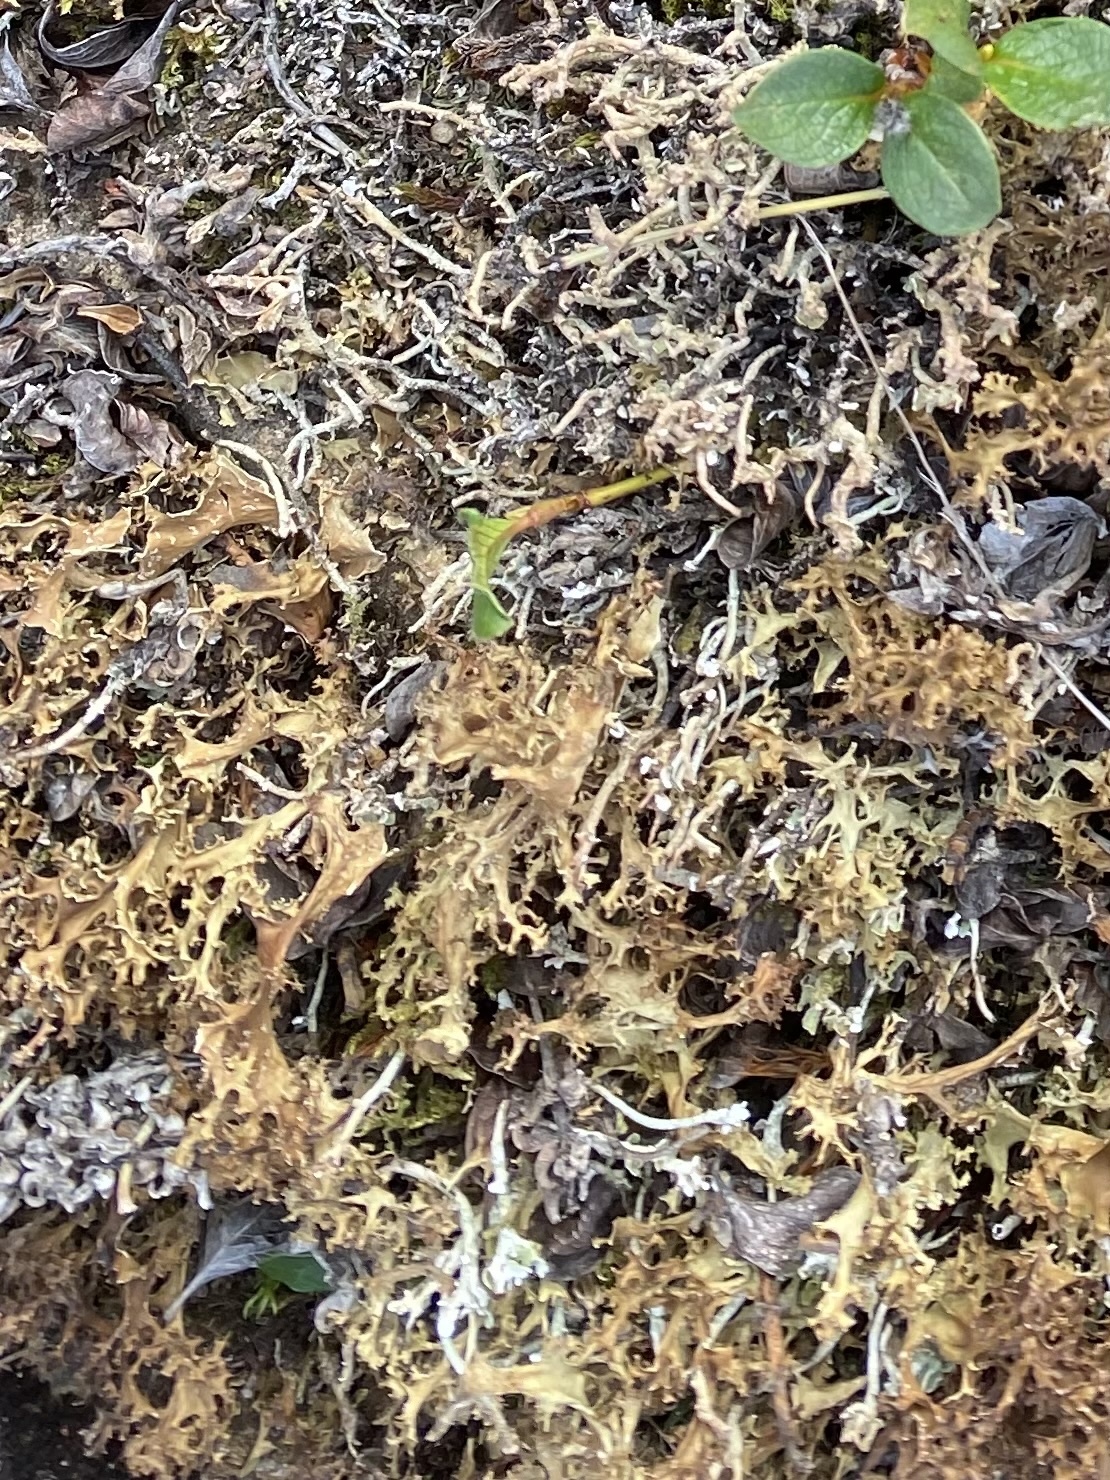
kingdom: Fungi
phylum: Ascomycota
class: Lecanoromycetes
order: Lecanorales
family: Parmeliaceae
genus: Cetraria
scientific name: Cetraria islandica
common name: Iceland lichen
